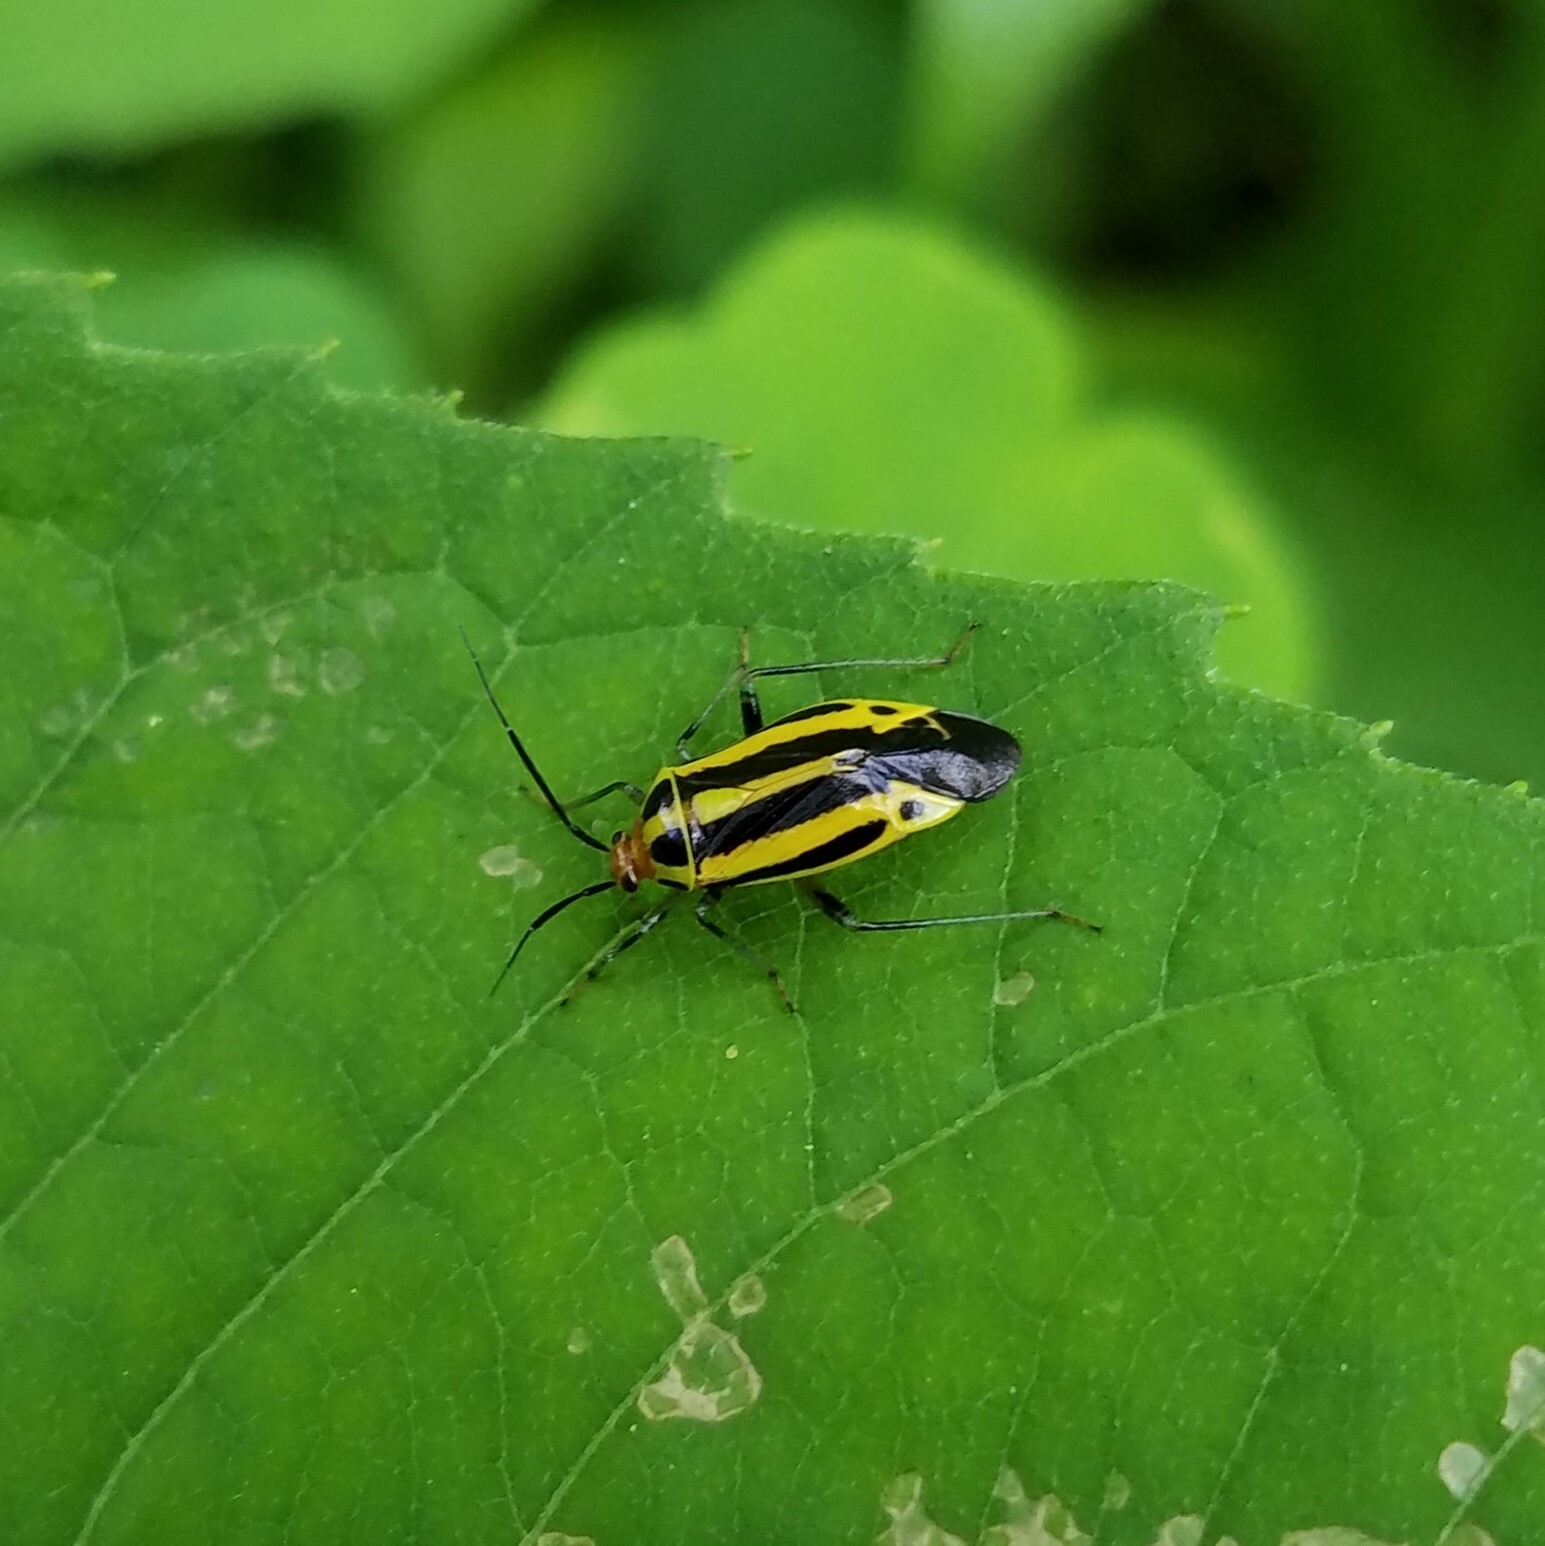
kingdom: Animalia
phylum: Arthropoda
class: Insecta
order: Hemiptera
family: Miridae
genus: Poecilocapsus
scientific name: Poecilocapsus lineatus
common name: Four-lined plant bug
